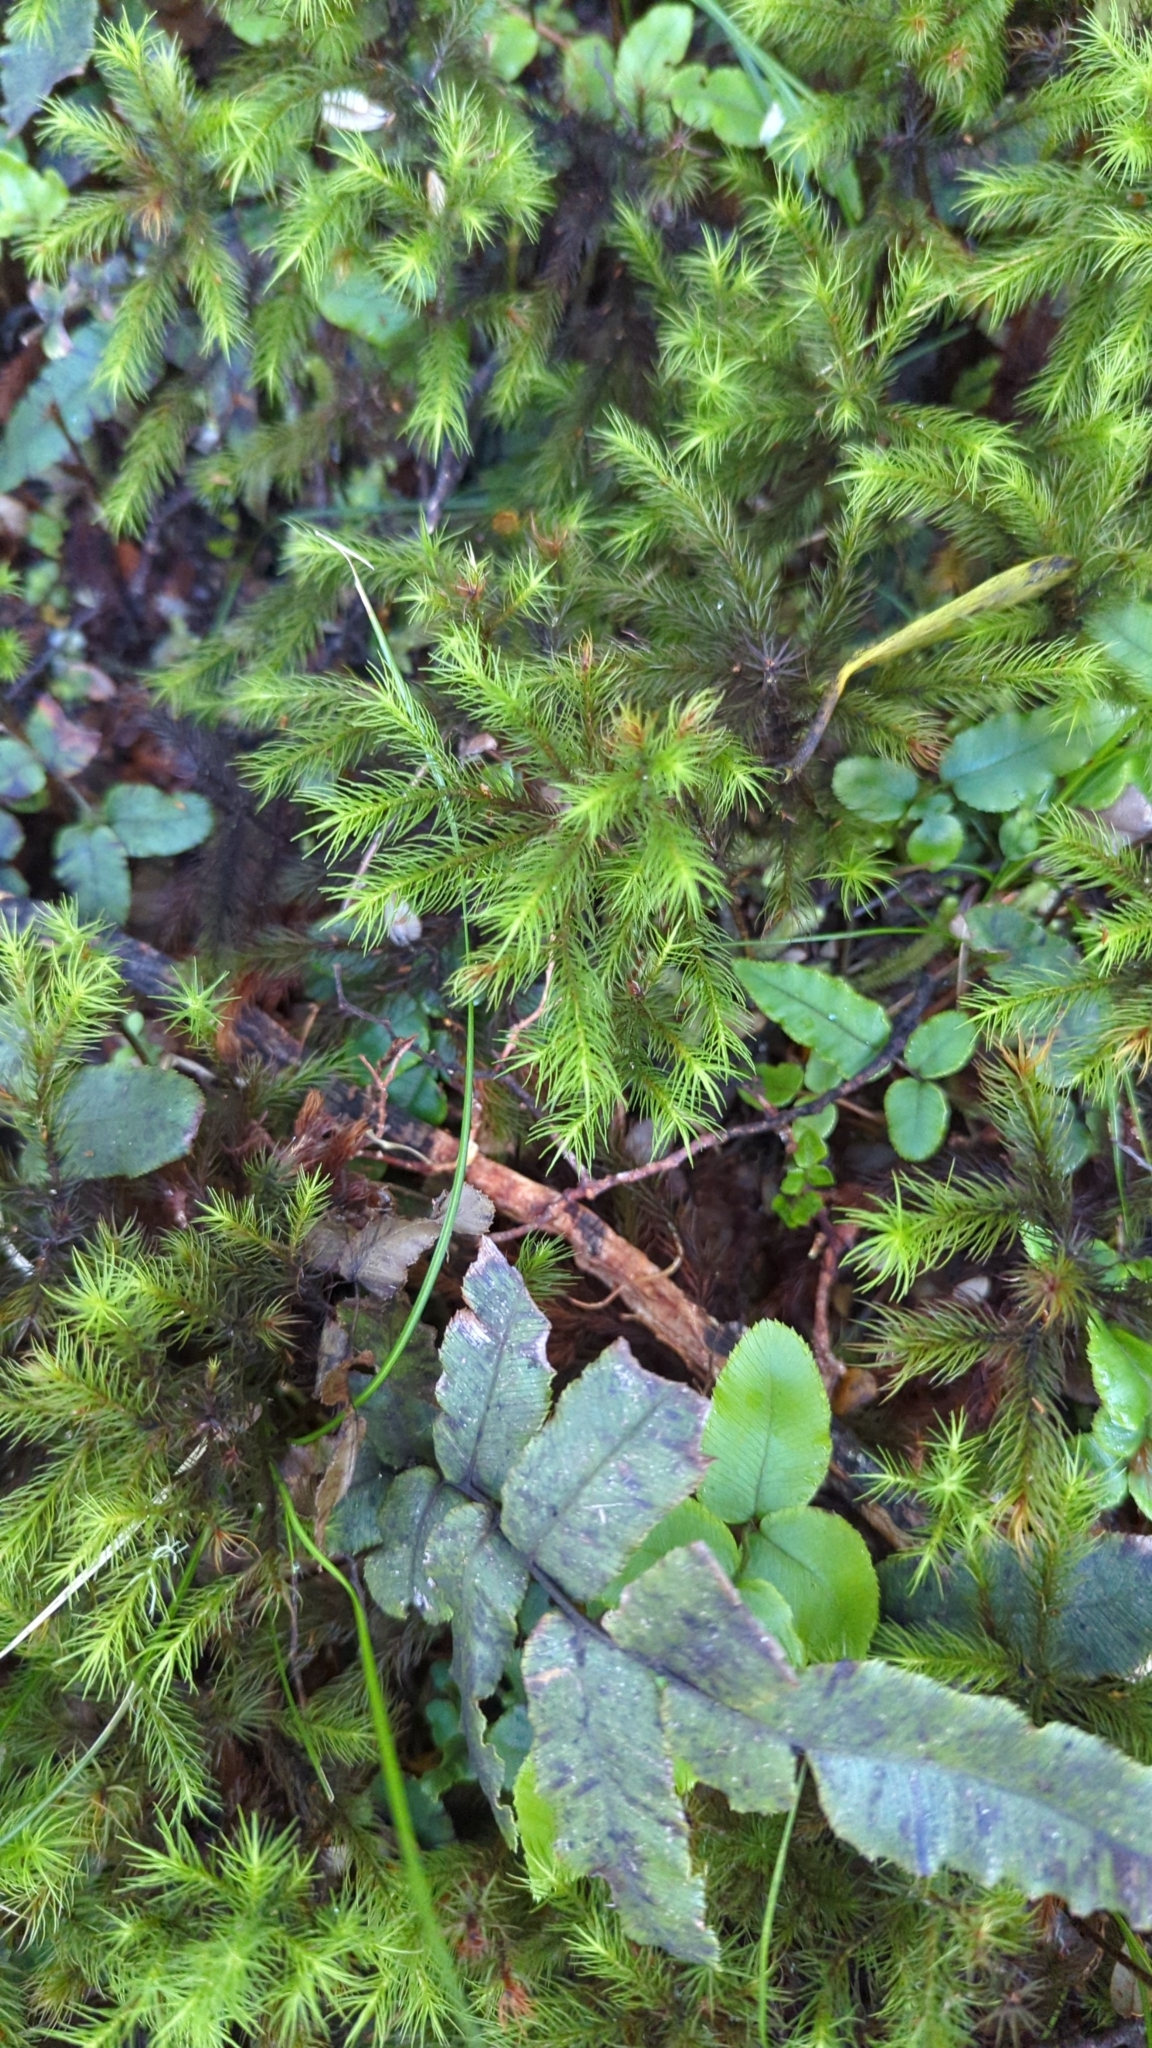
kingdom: Plantae
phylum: Bryophyta
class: Polytrichopsida
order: Polytrichales
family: Polytrichaceae
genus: Dendroligotrichum
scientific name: Dendroligotrichum tongariroense
